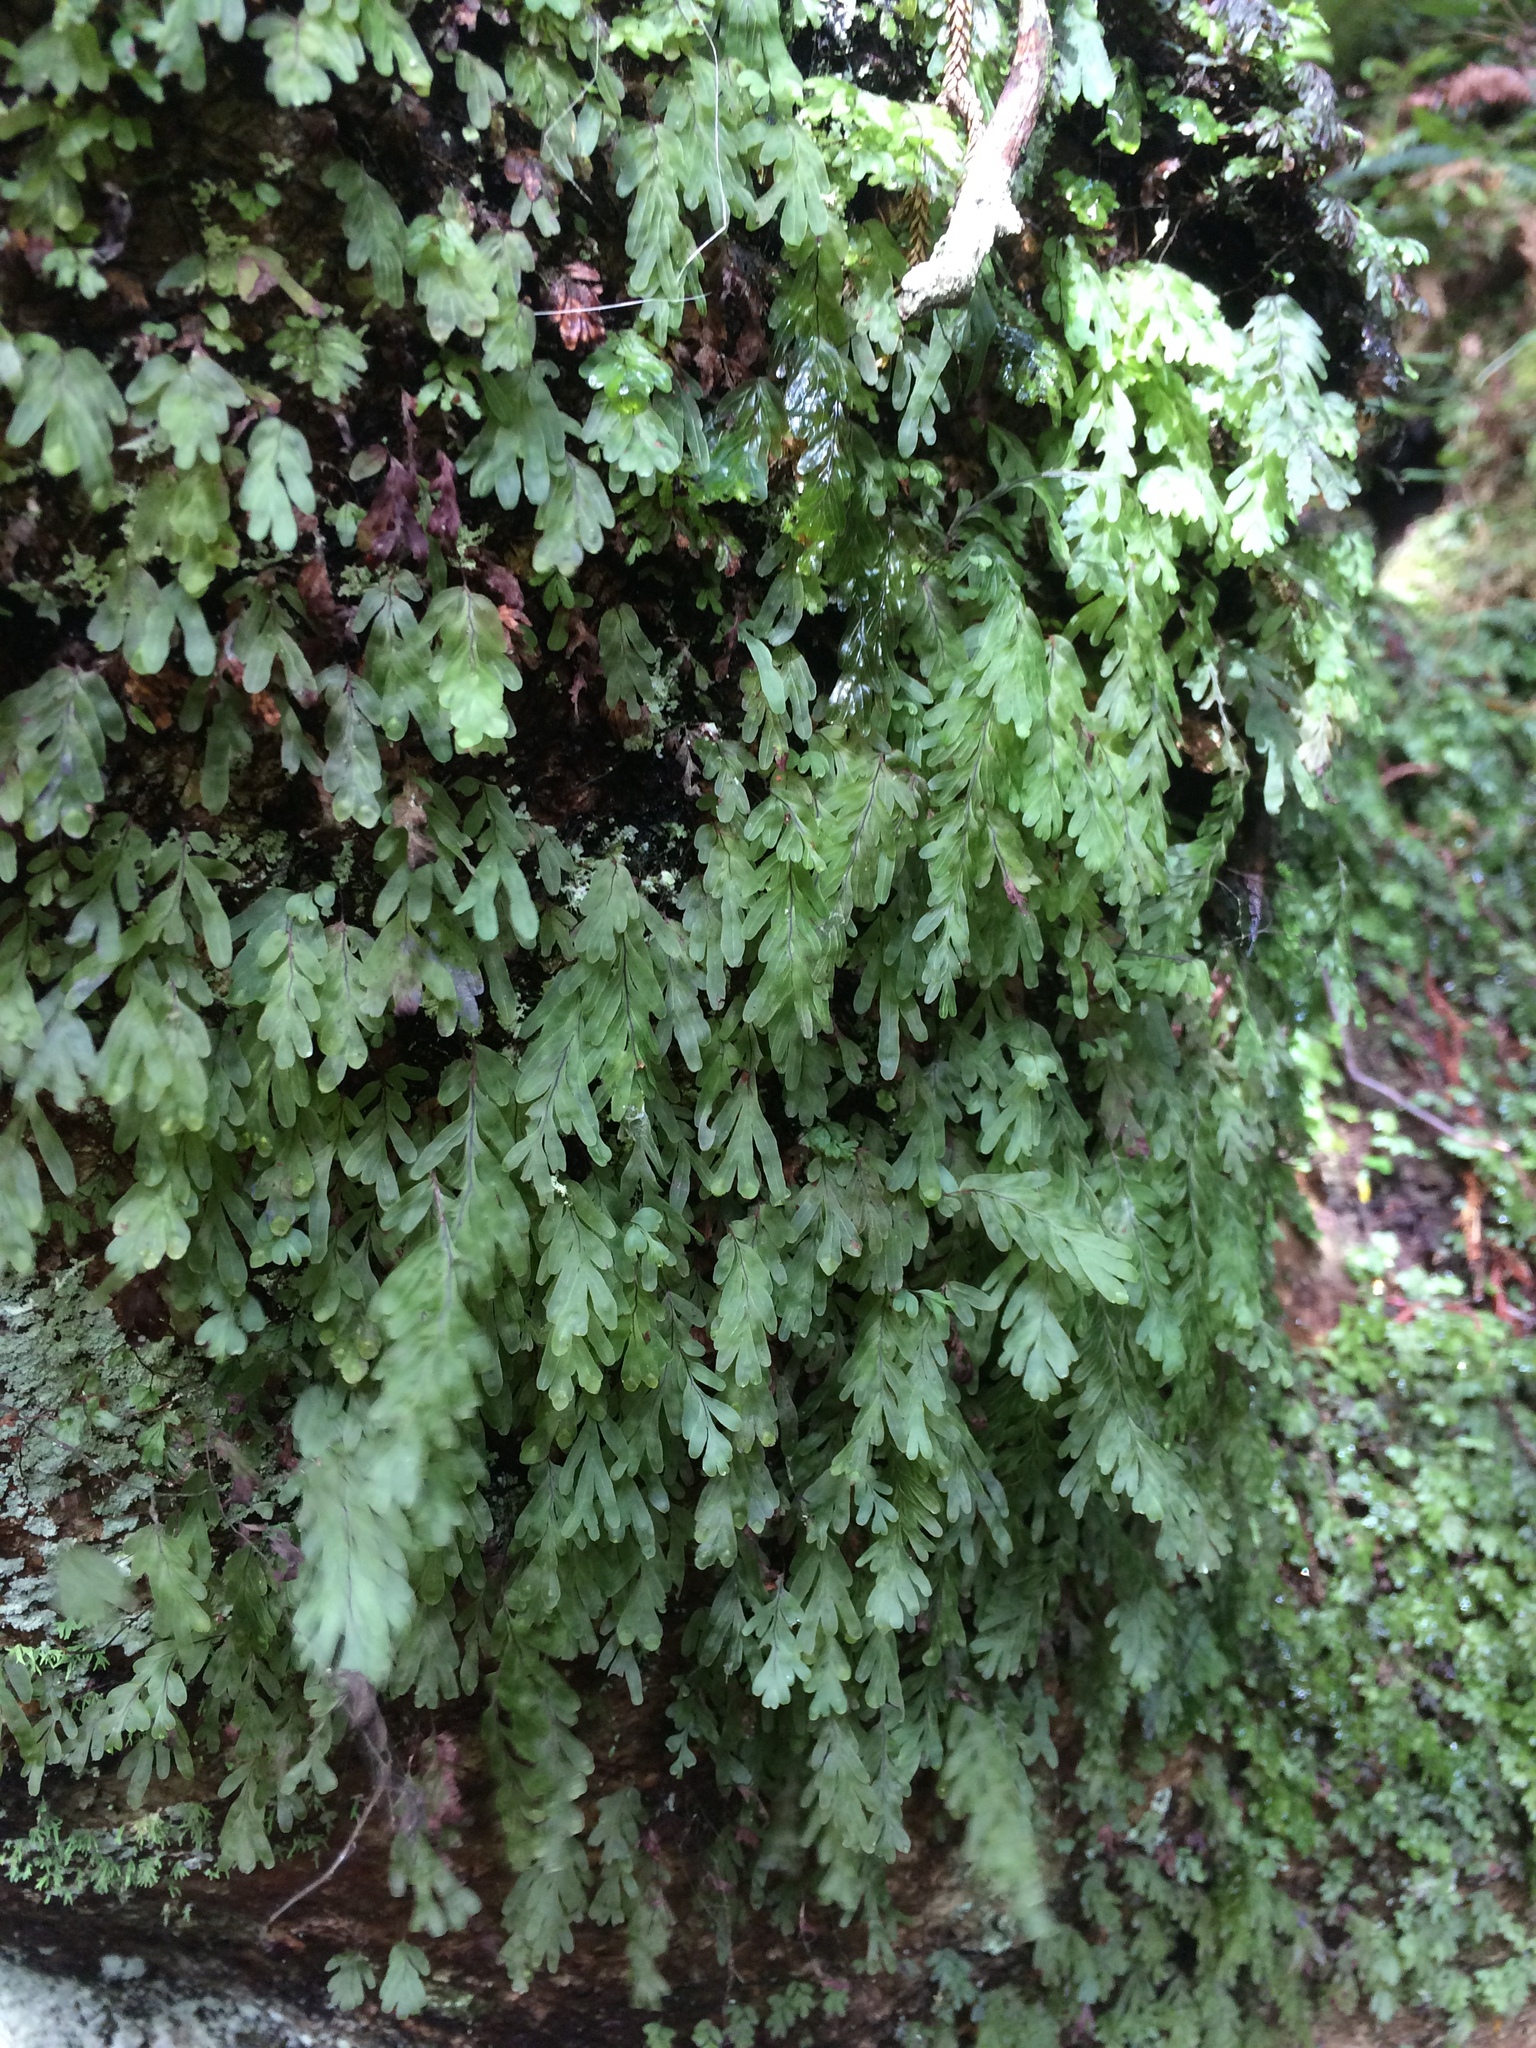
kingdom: Plantae
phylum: Tracheophyta
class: Polypodiopsida
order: Hymenophyllales
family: Hymenophyllaceae
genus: Hymenophyllum
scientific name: Hymenophyllum rarum
